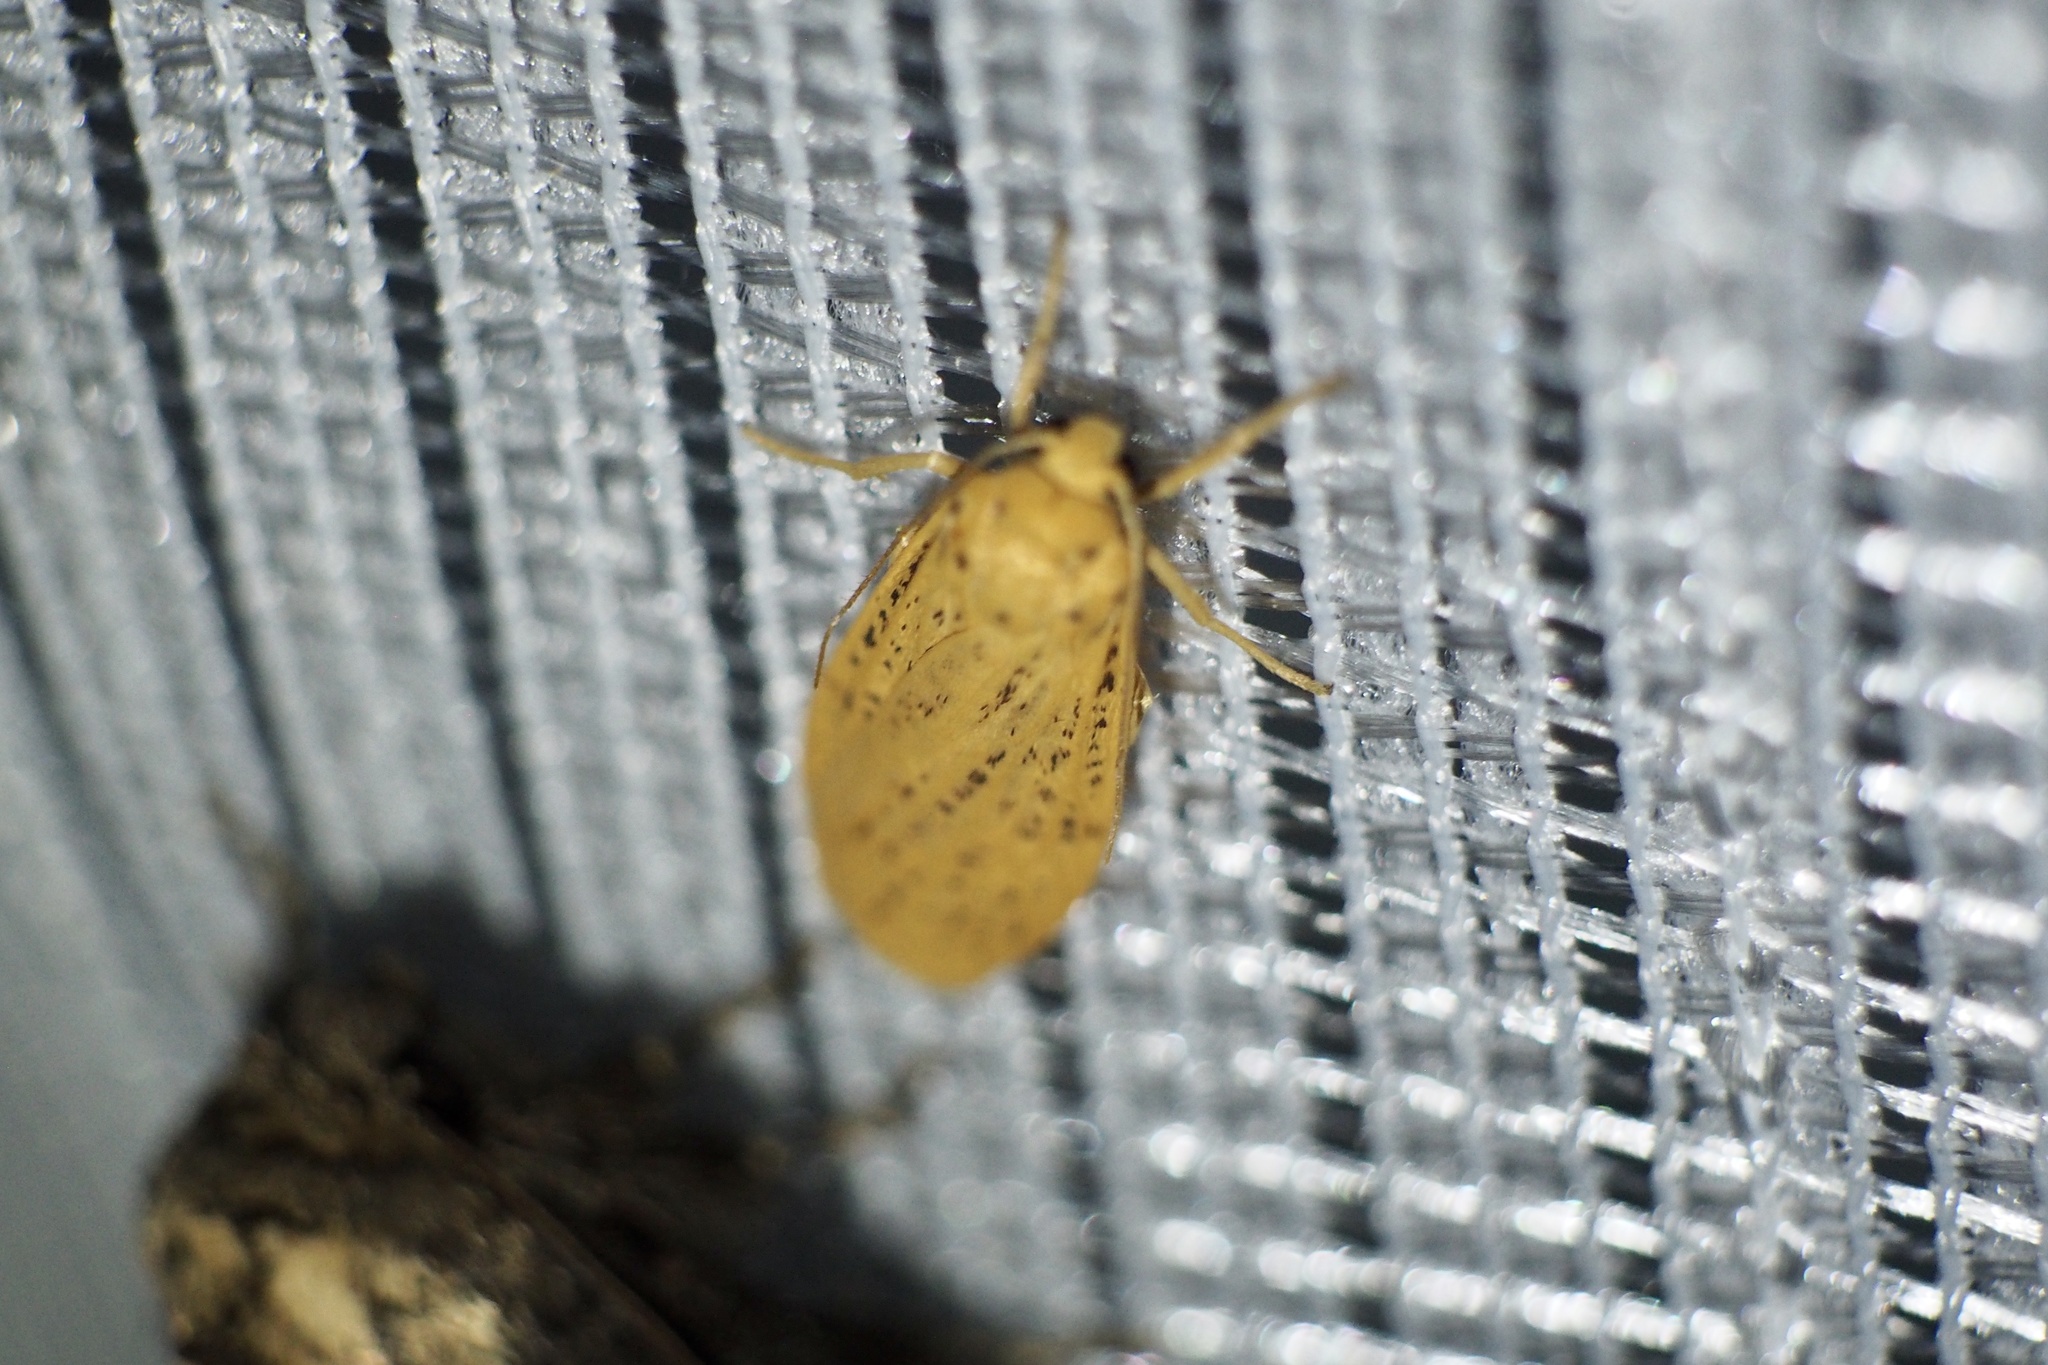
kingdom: Animalia
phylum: Arthropoda
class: Insecta
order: Lepidoptera
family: Erebidae
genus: Dolgoma
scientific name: Dolgoma cribrata
